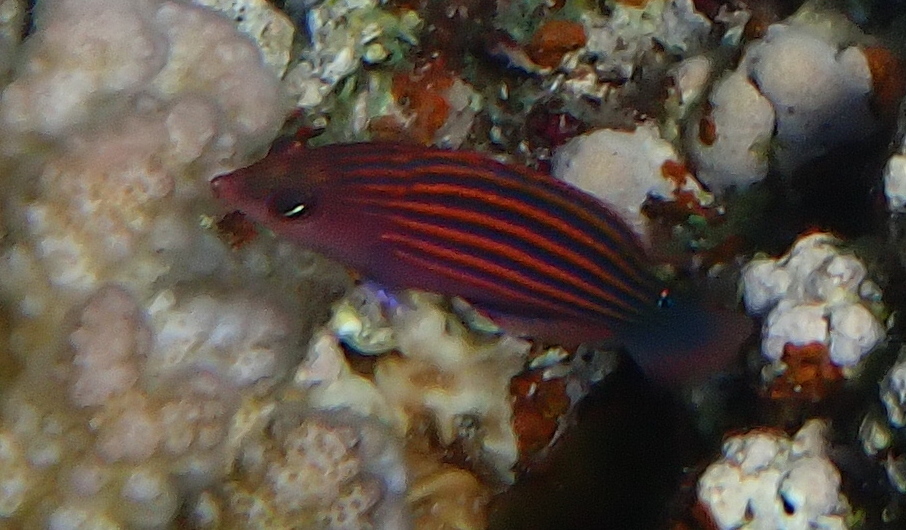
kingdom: Animalia
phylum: Chordata
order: Perciformes
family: Labridae
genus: Pseudocheilinus
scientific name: Pseudocheilinus hexataenia
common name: Sixline wrasse
